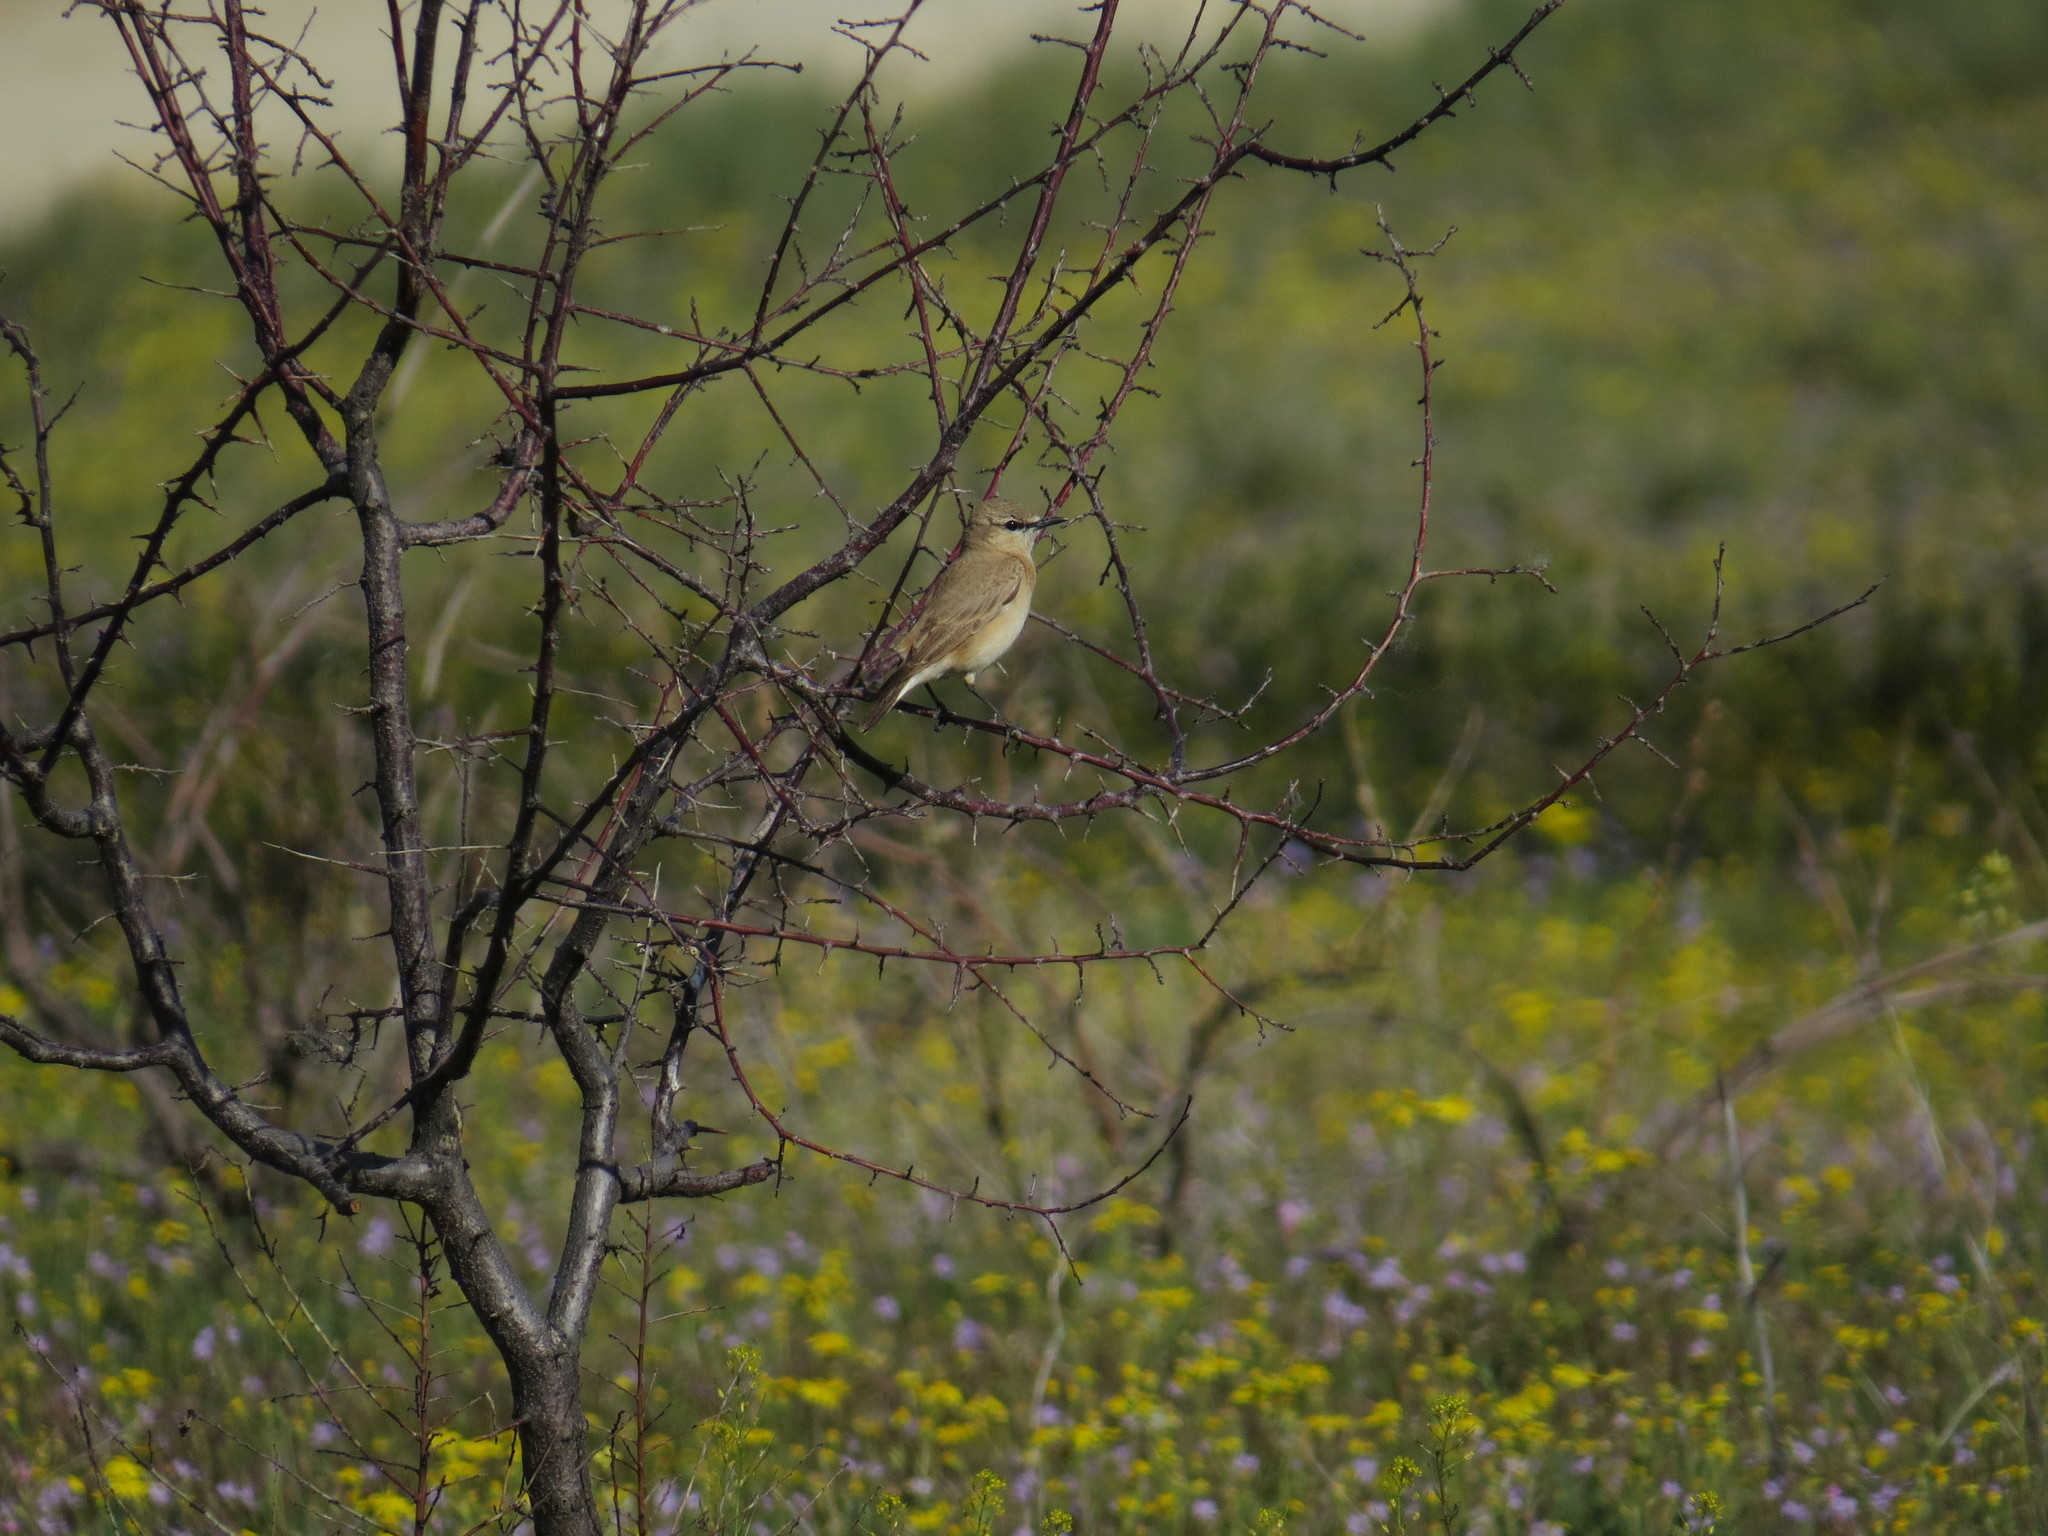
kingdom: Animalia
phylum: Chordata
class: Aves
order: Passeriformes
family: Muscicapidae
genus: Oenanthe
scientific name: Oenanthe isabellina
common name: Isabelline wheatear
